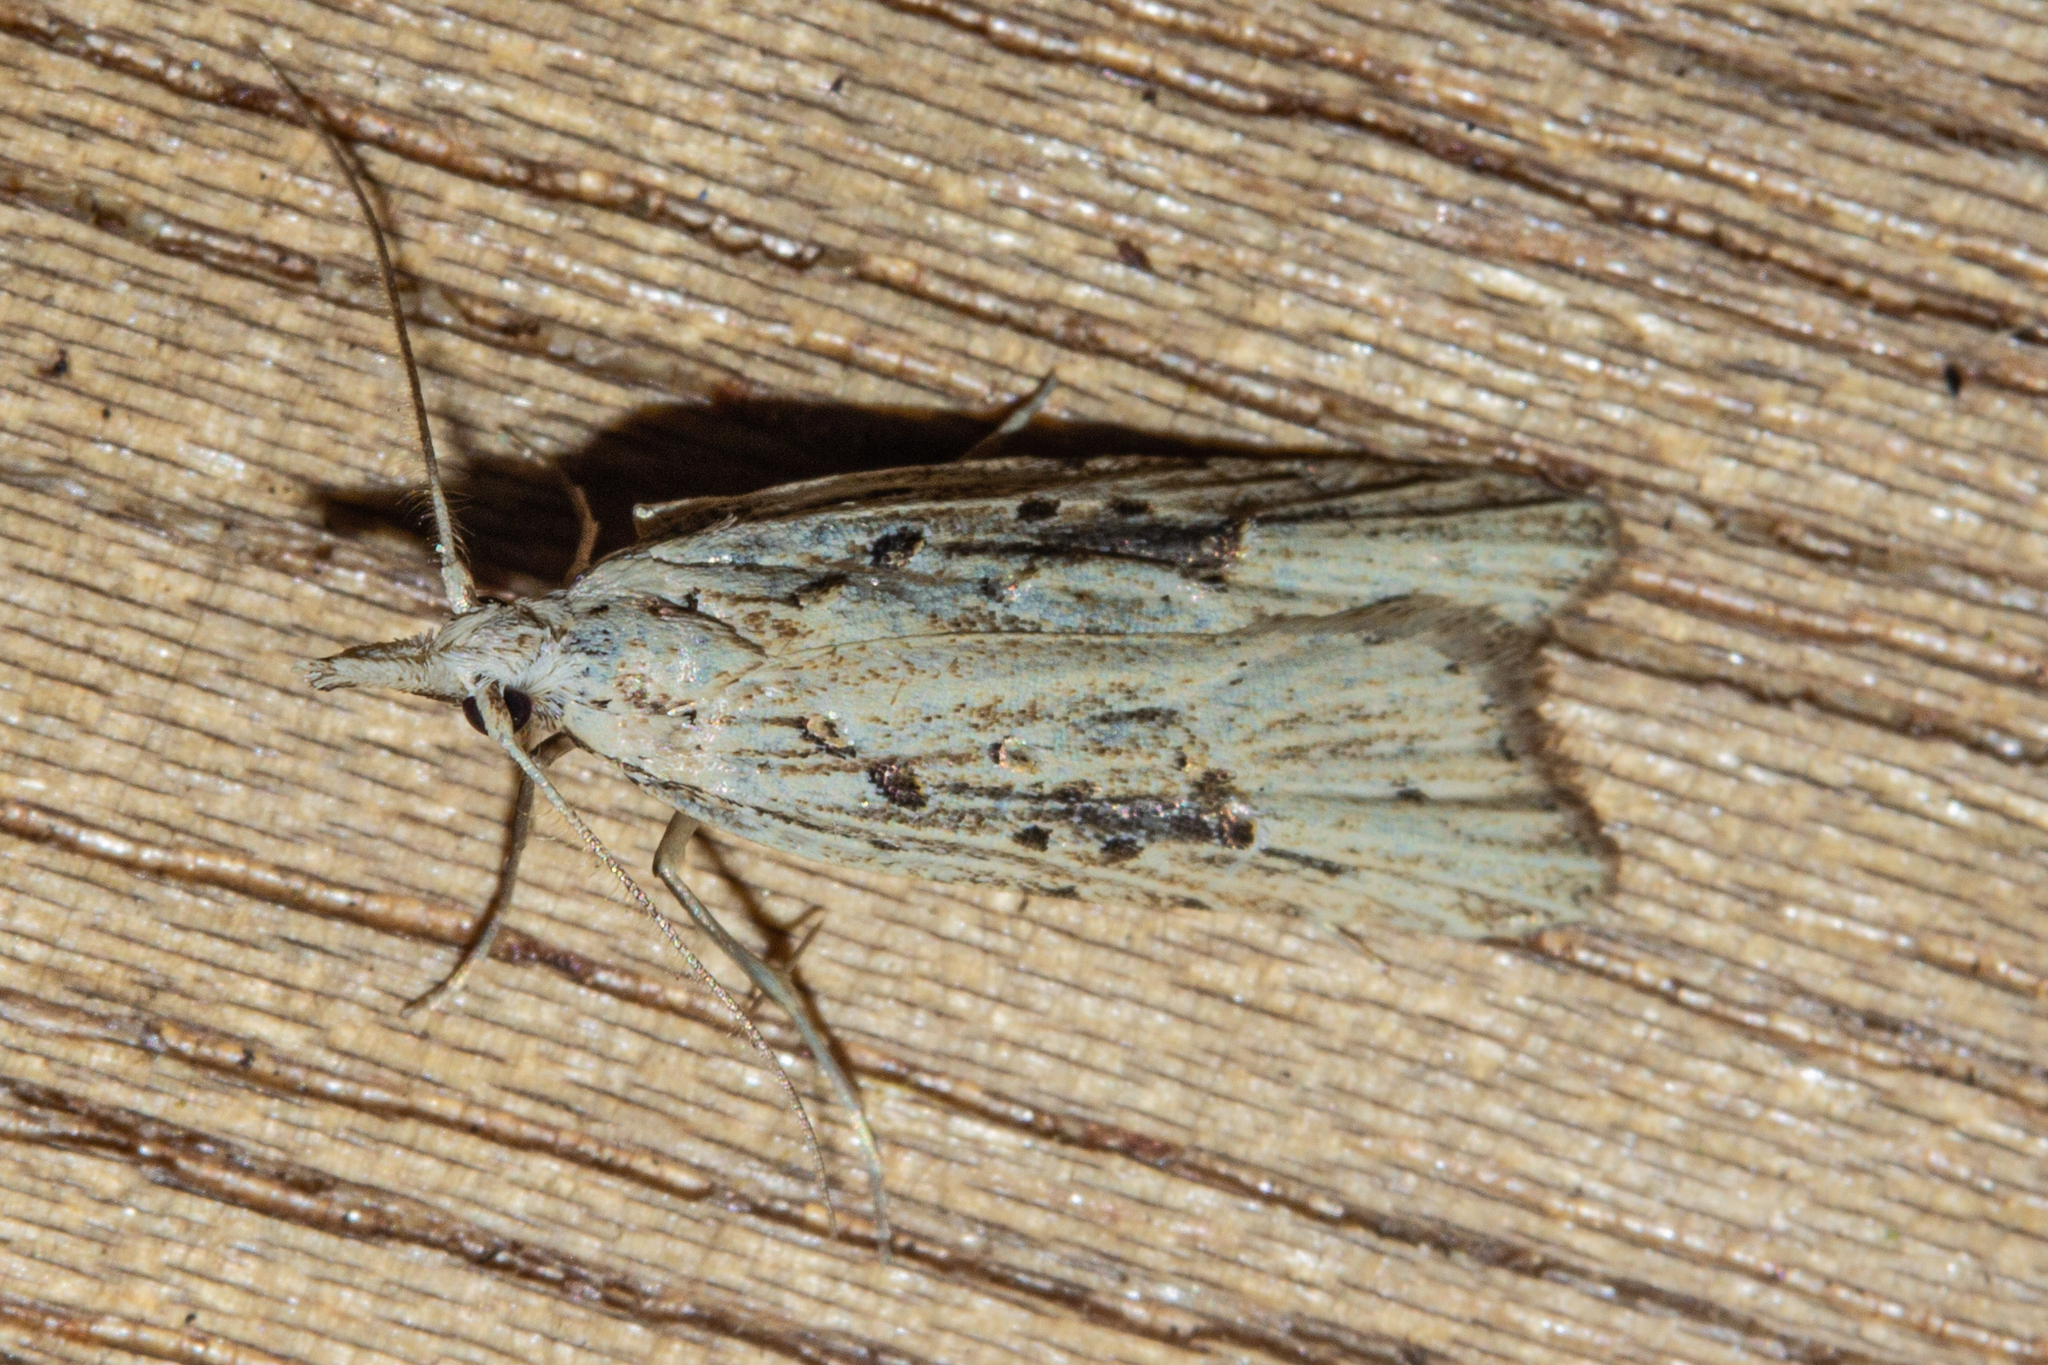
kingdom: Animalia
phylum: Arthropoda
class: Insecta
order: Lepidoptera
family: Carposinidae
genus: Carposina
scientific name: Carposina Heterocrossa exochana
